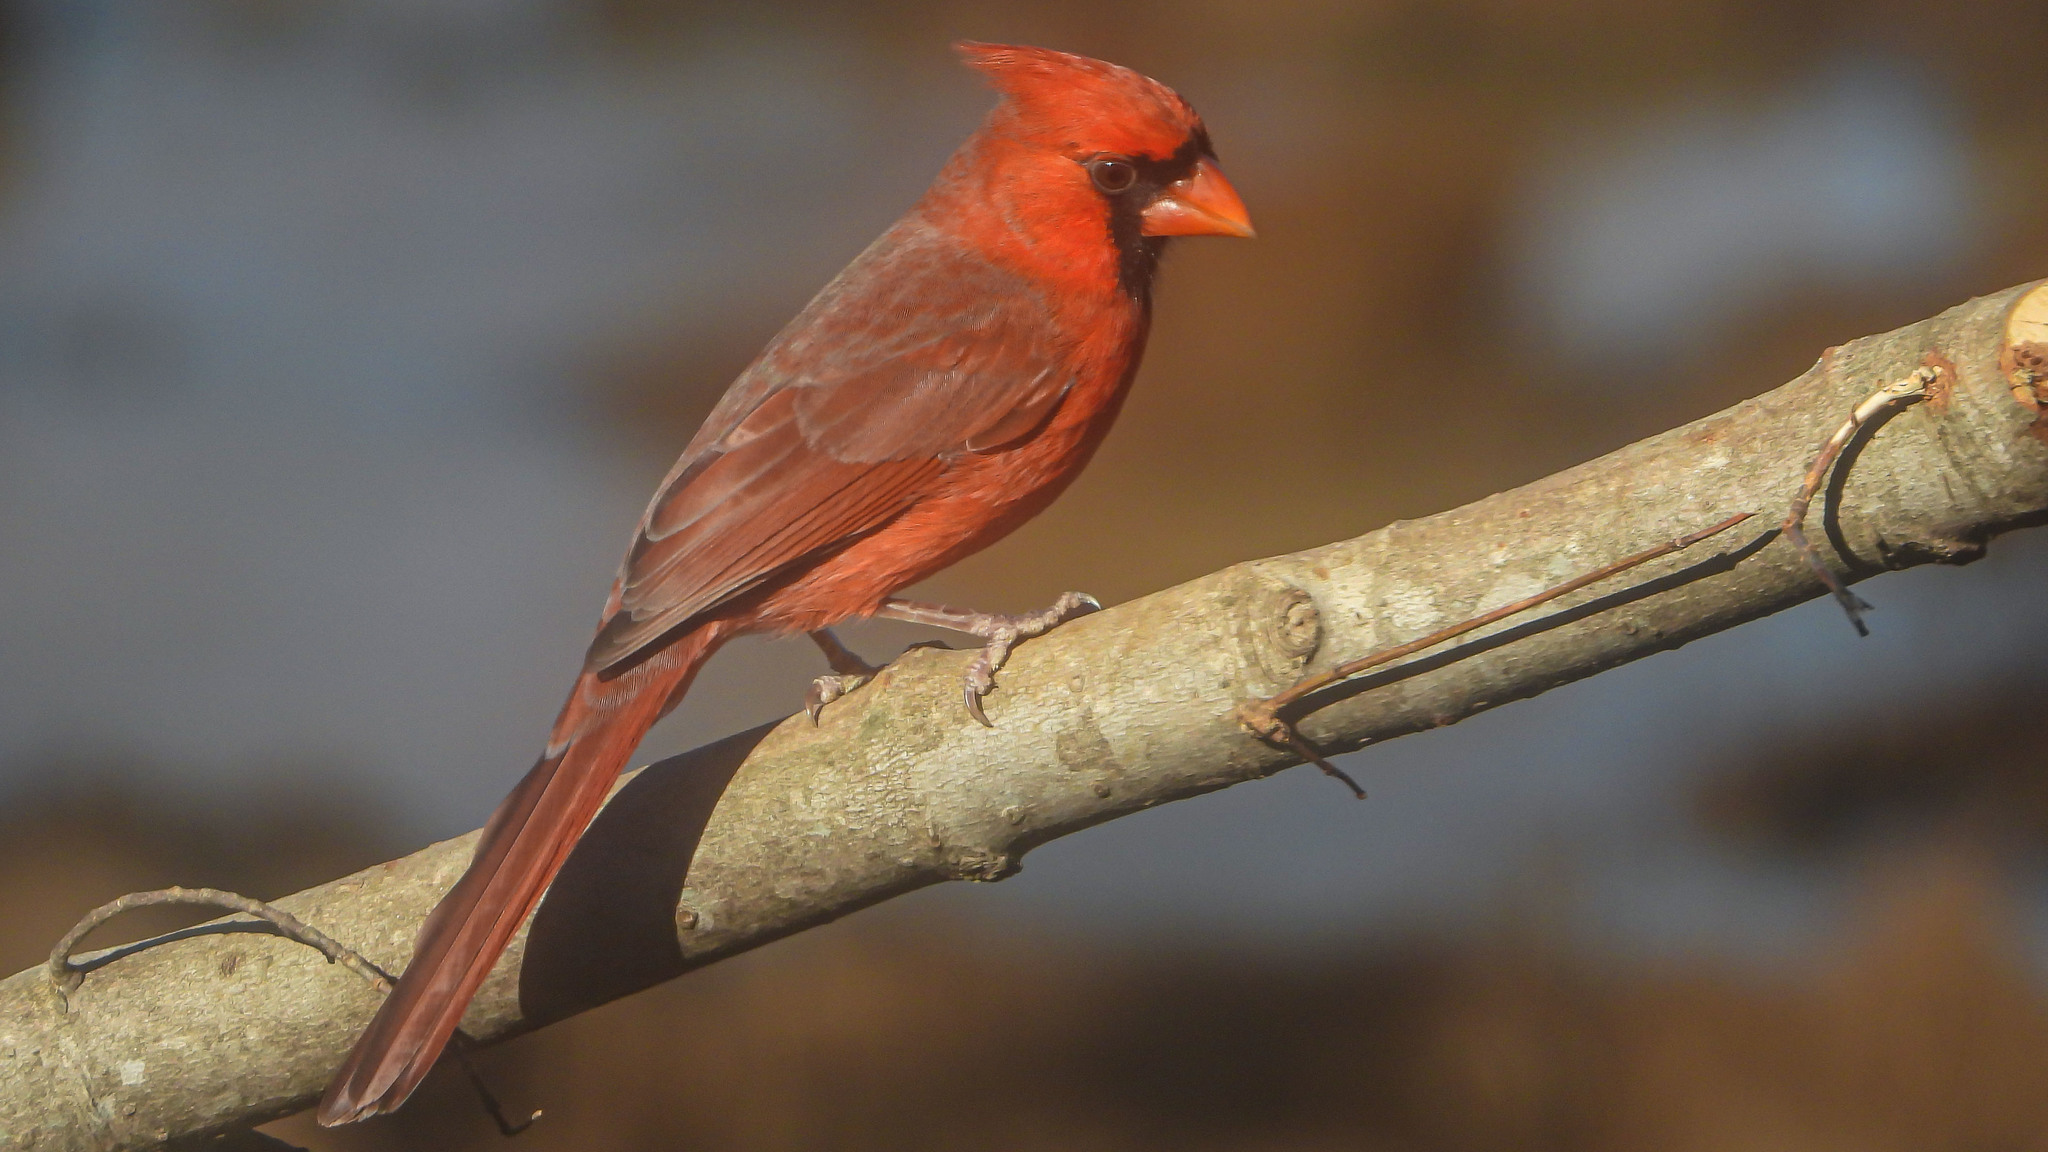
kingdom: Animalia
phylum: Chordata
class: Aves
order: Passeriformes
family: Cardinalidae
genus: Cardinalis
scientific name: Cardinalis cardinalis
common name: Northern cardinal
